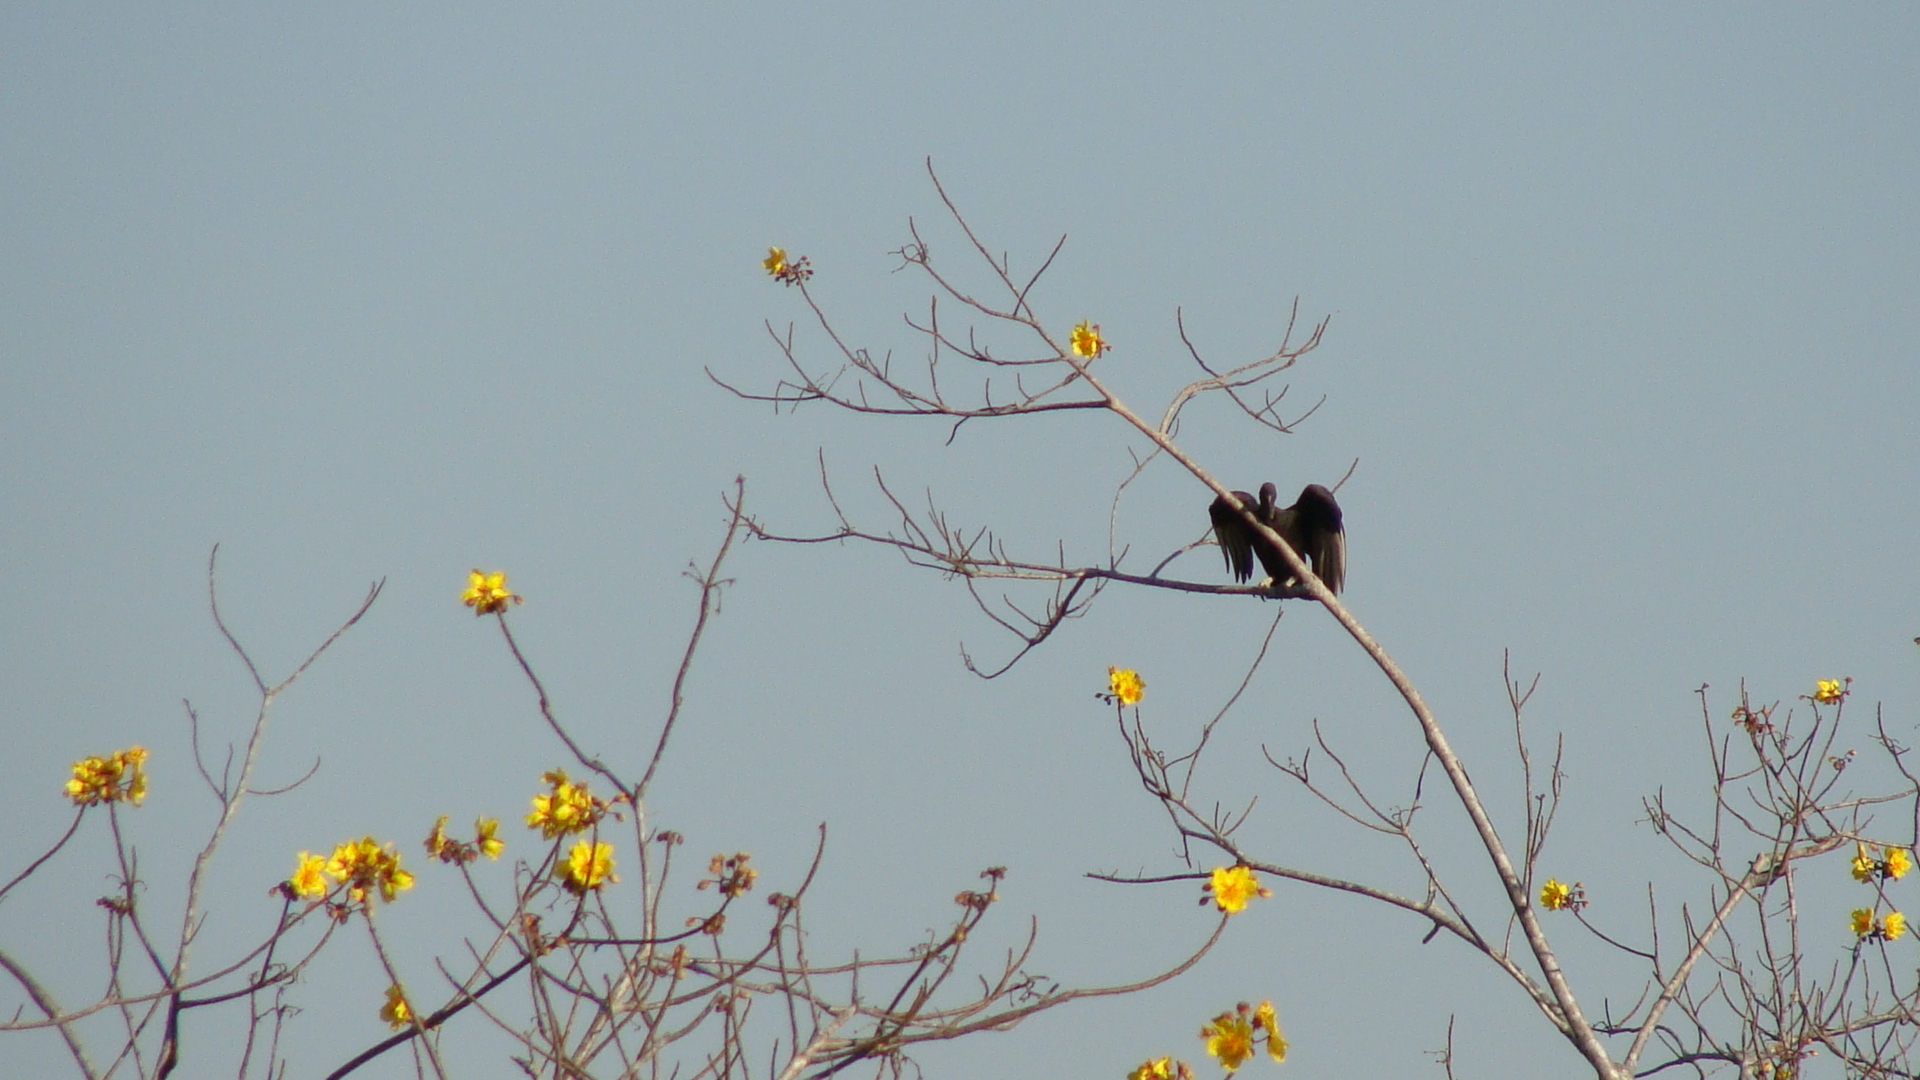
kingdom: Animalia
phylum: Chordata
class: Aves
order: Accipitriformes
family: Cathartidae
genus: Coragyps
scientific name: Coragyps atratus
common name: Black vulture
